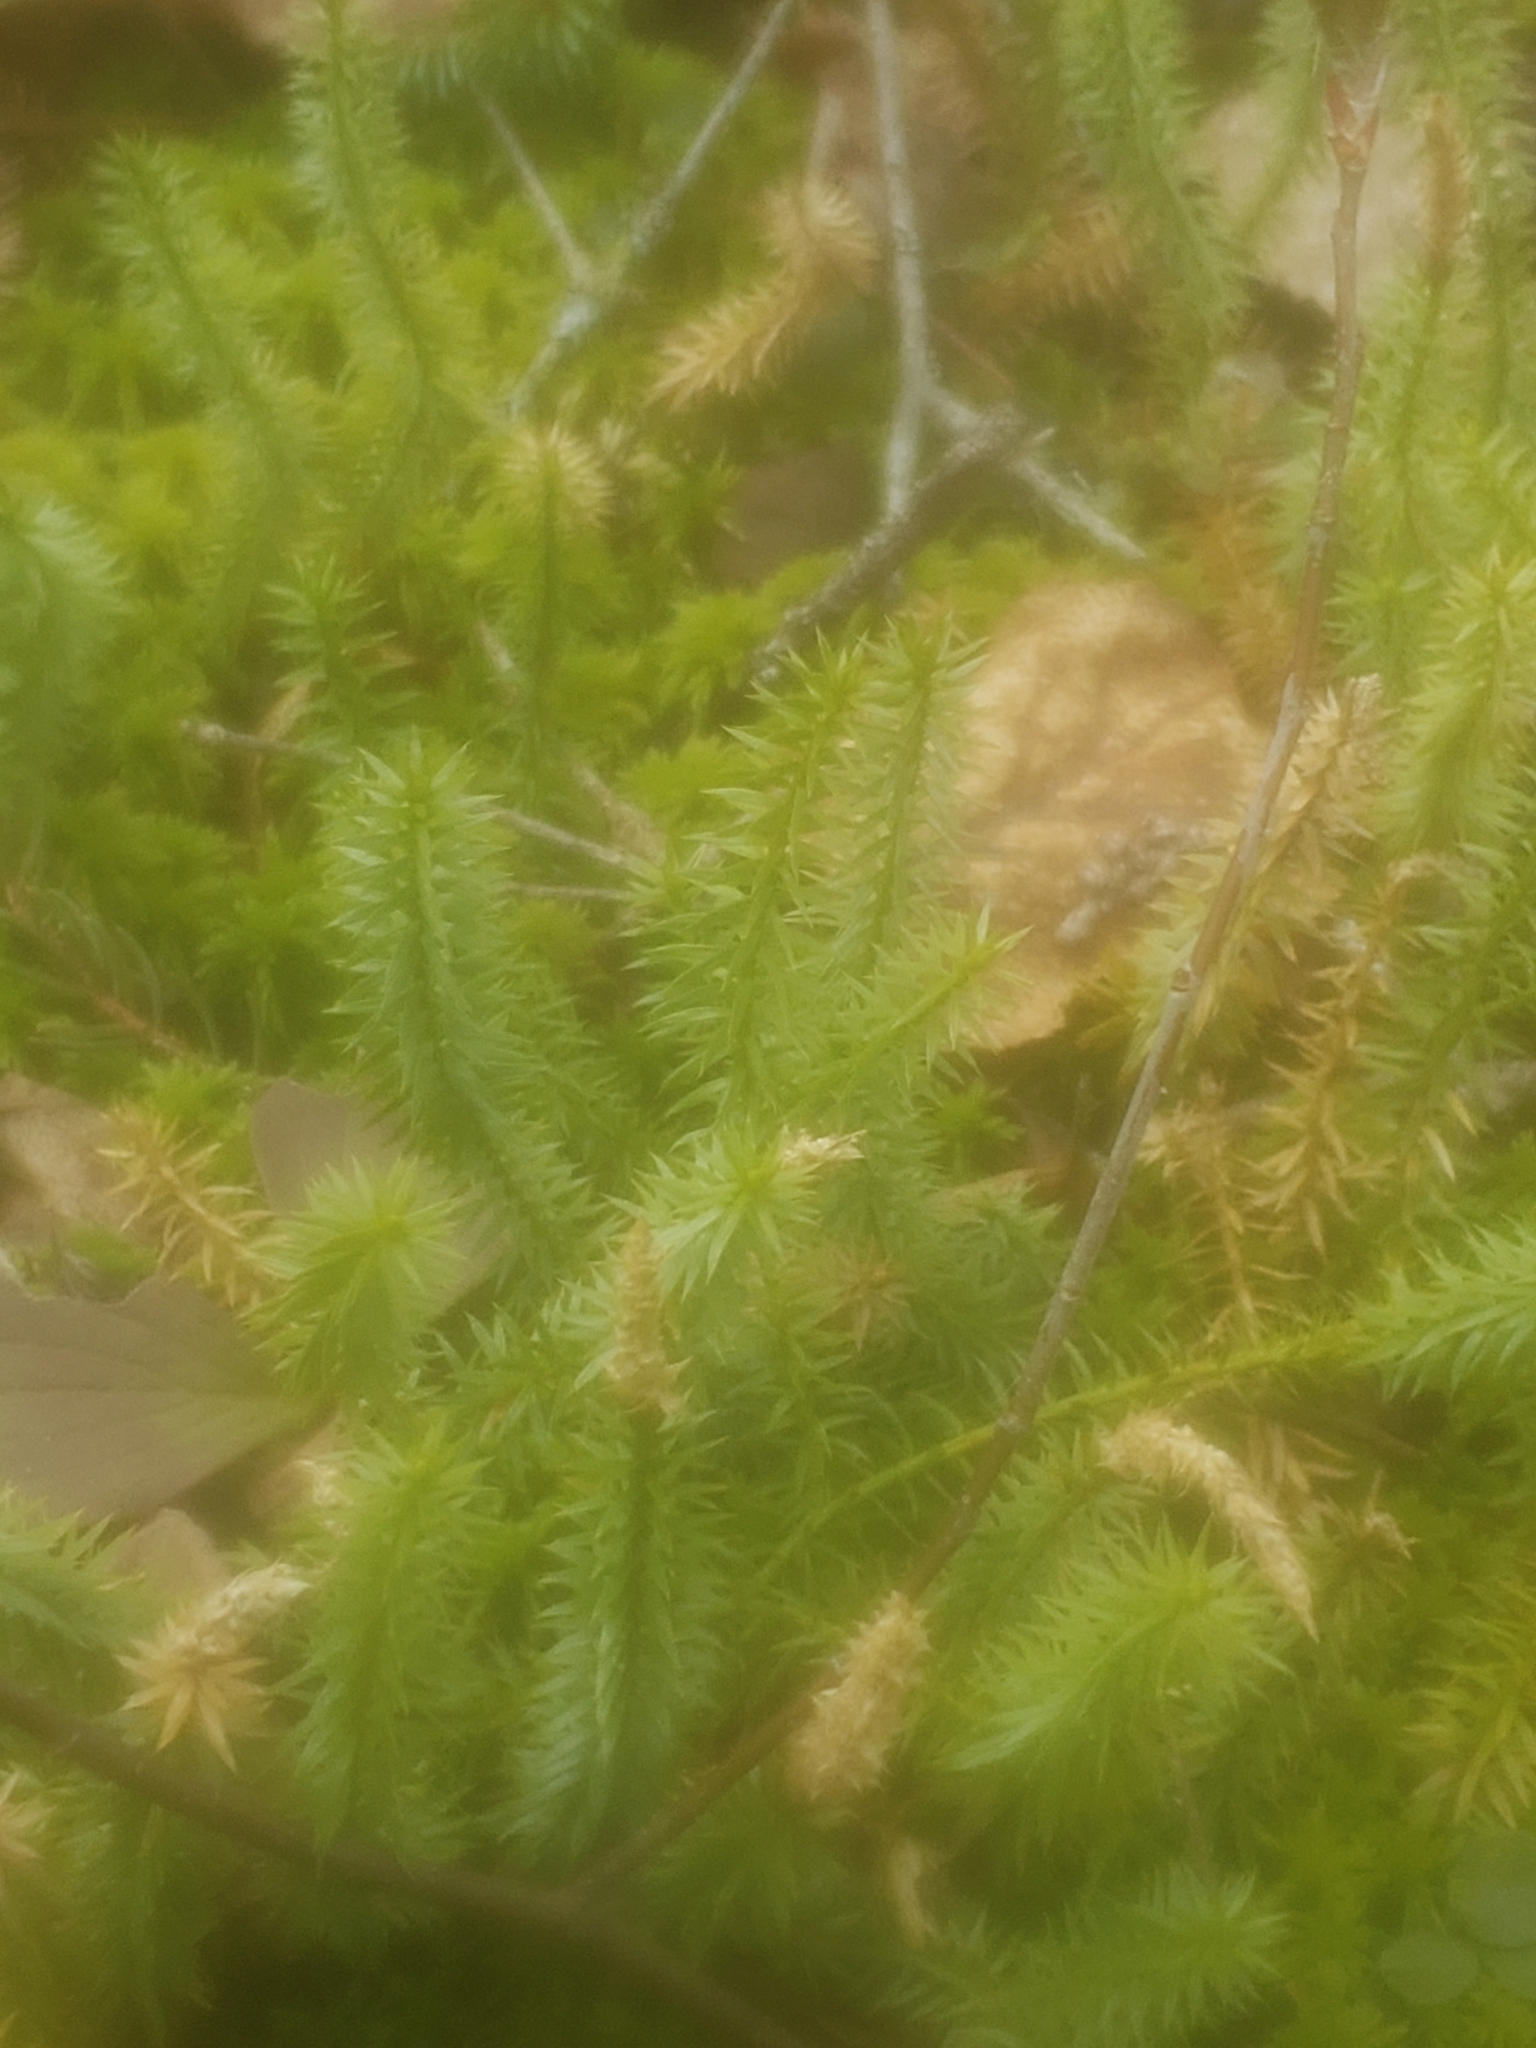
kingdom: Plantae
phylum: Tracheophyta
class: Lycopodiopsida
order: Lycopodiales
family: Lycopodiaceae
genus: Spinulum
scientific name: Spinulum annotinum
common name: Interrupted club-moss
